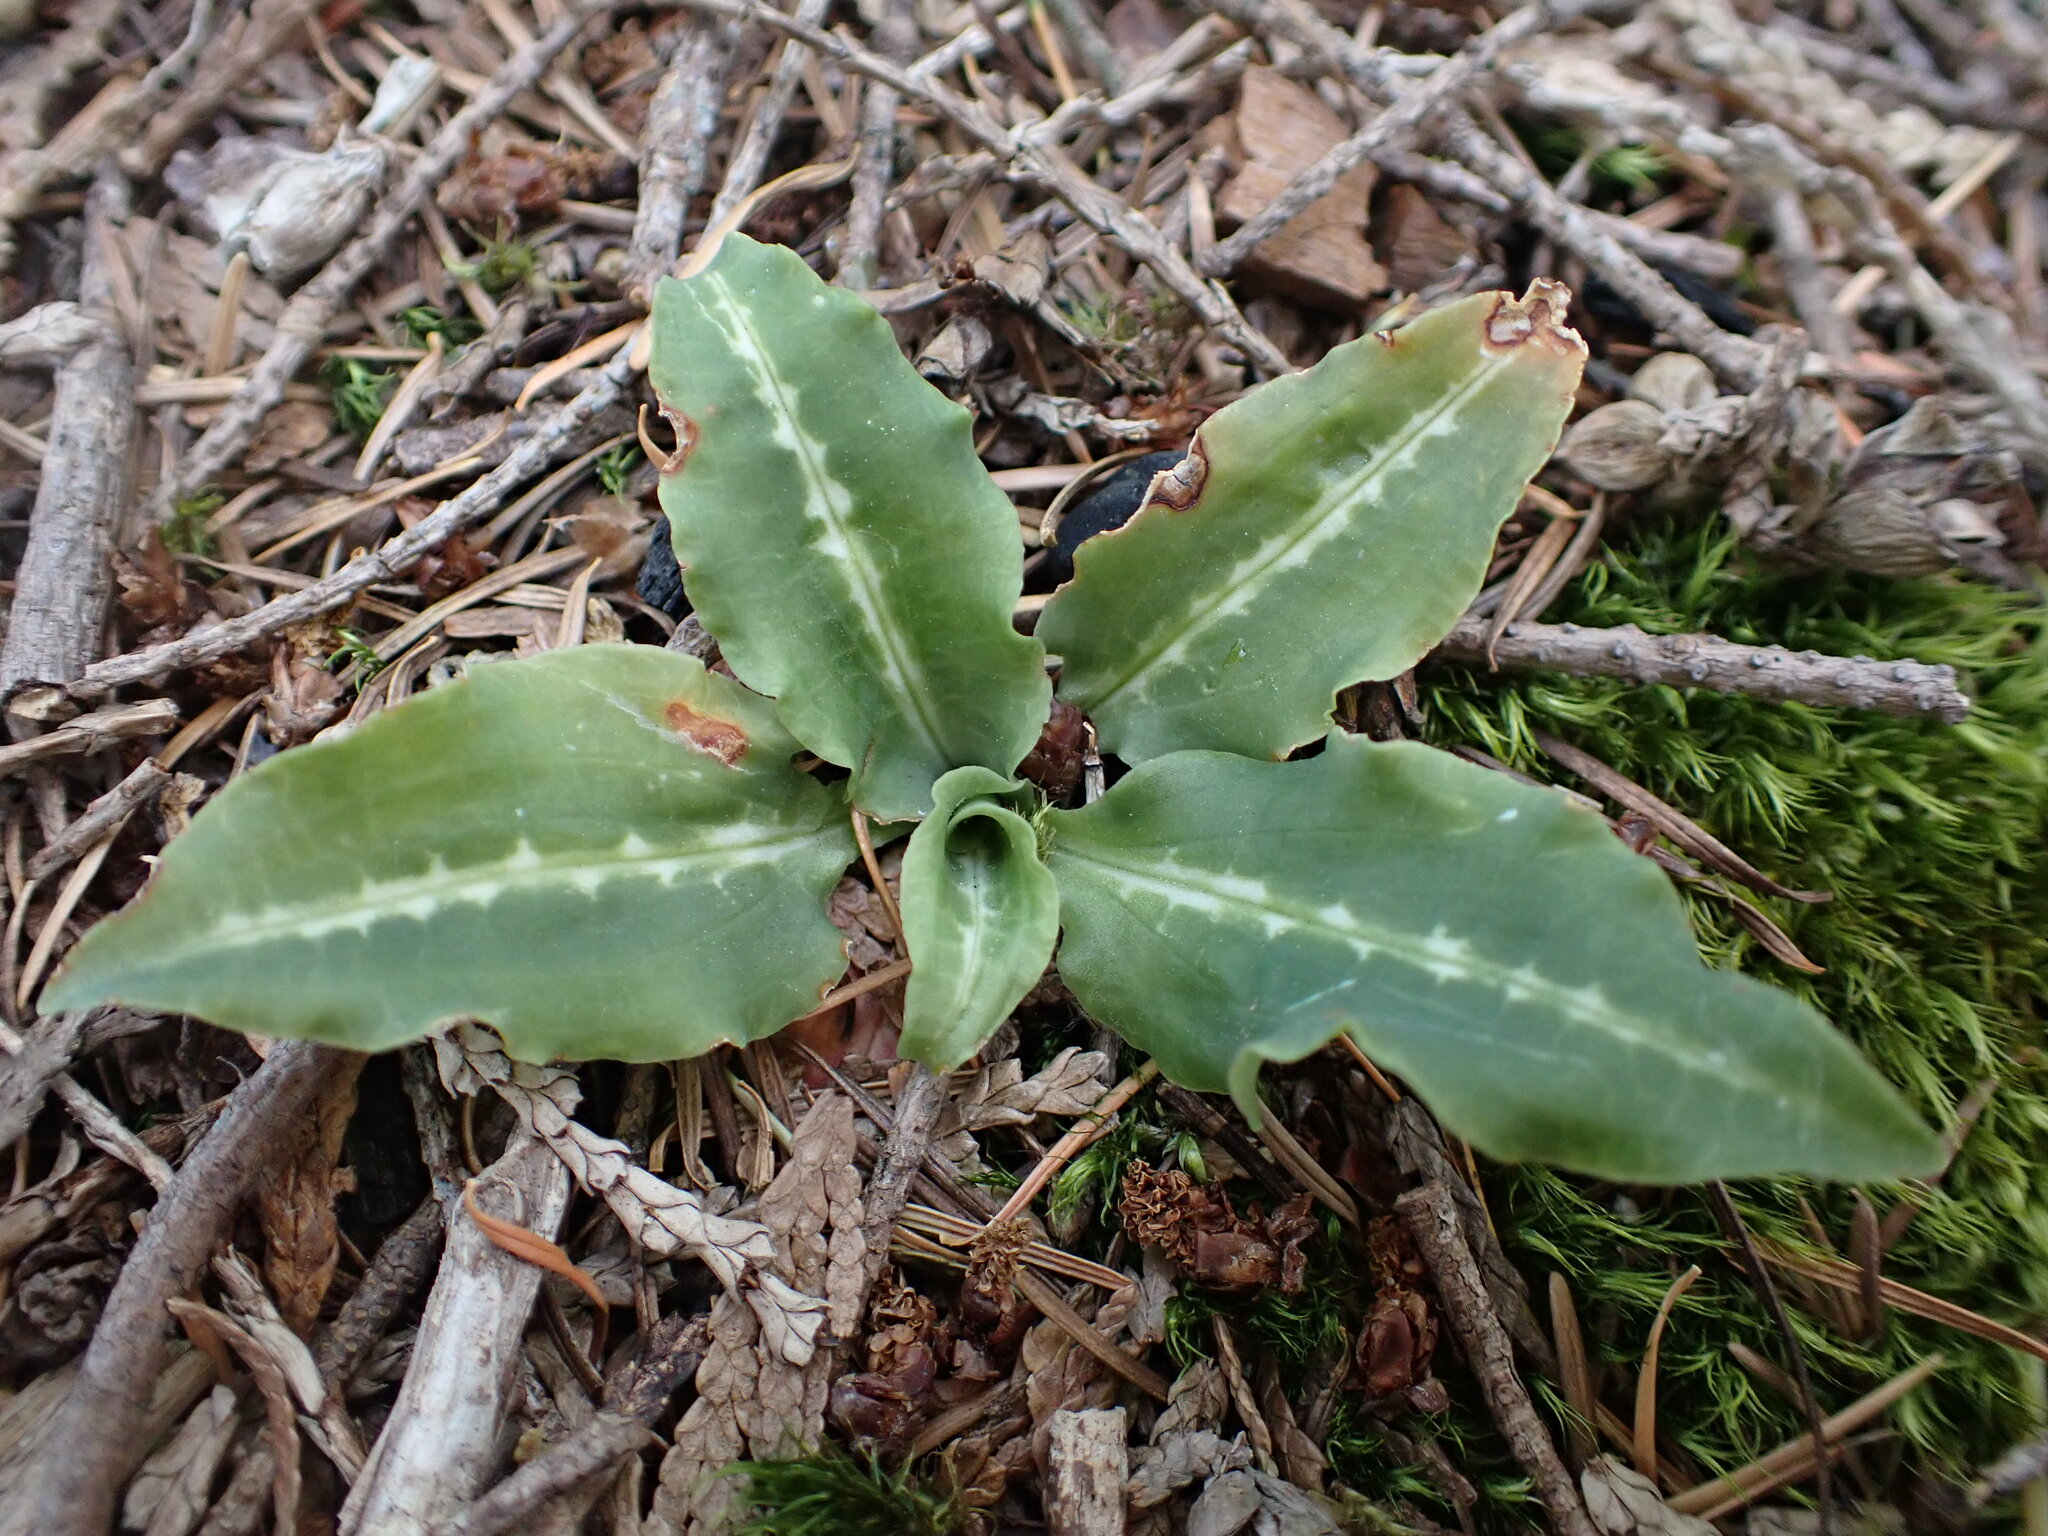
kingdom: Plantae
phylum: Tracheophyta
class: Liliopsida
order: Asparagales
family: Orchidaceae
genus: Goodyera
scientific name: Goodyera oblongifolia
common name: Giant rattlesnake-plantain
